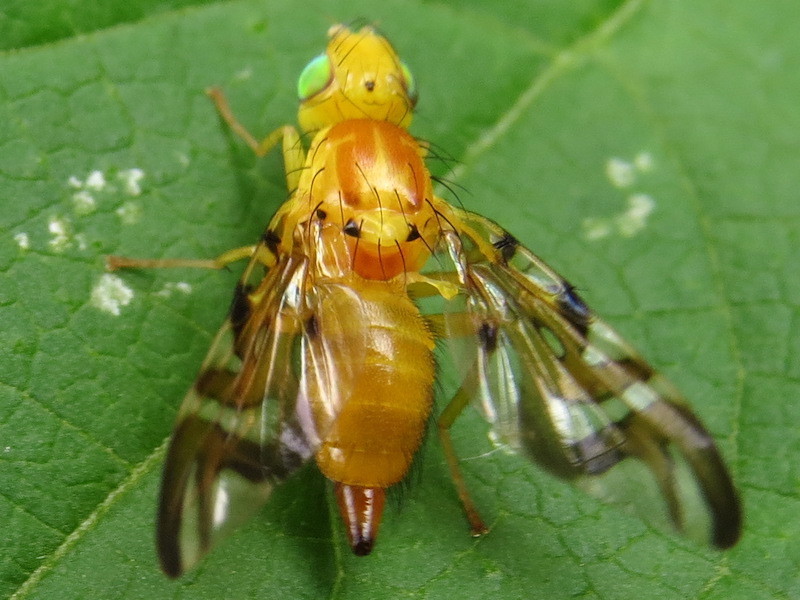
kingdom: Animalia
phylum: Arthropoda
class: Insecta
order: Diptera
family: Tephritidae
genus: Strauzia
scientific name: Strauzia longipennis
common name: Sunflower maggot
